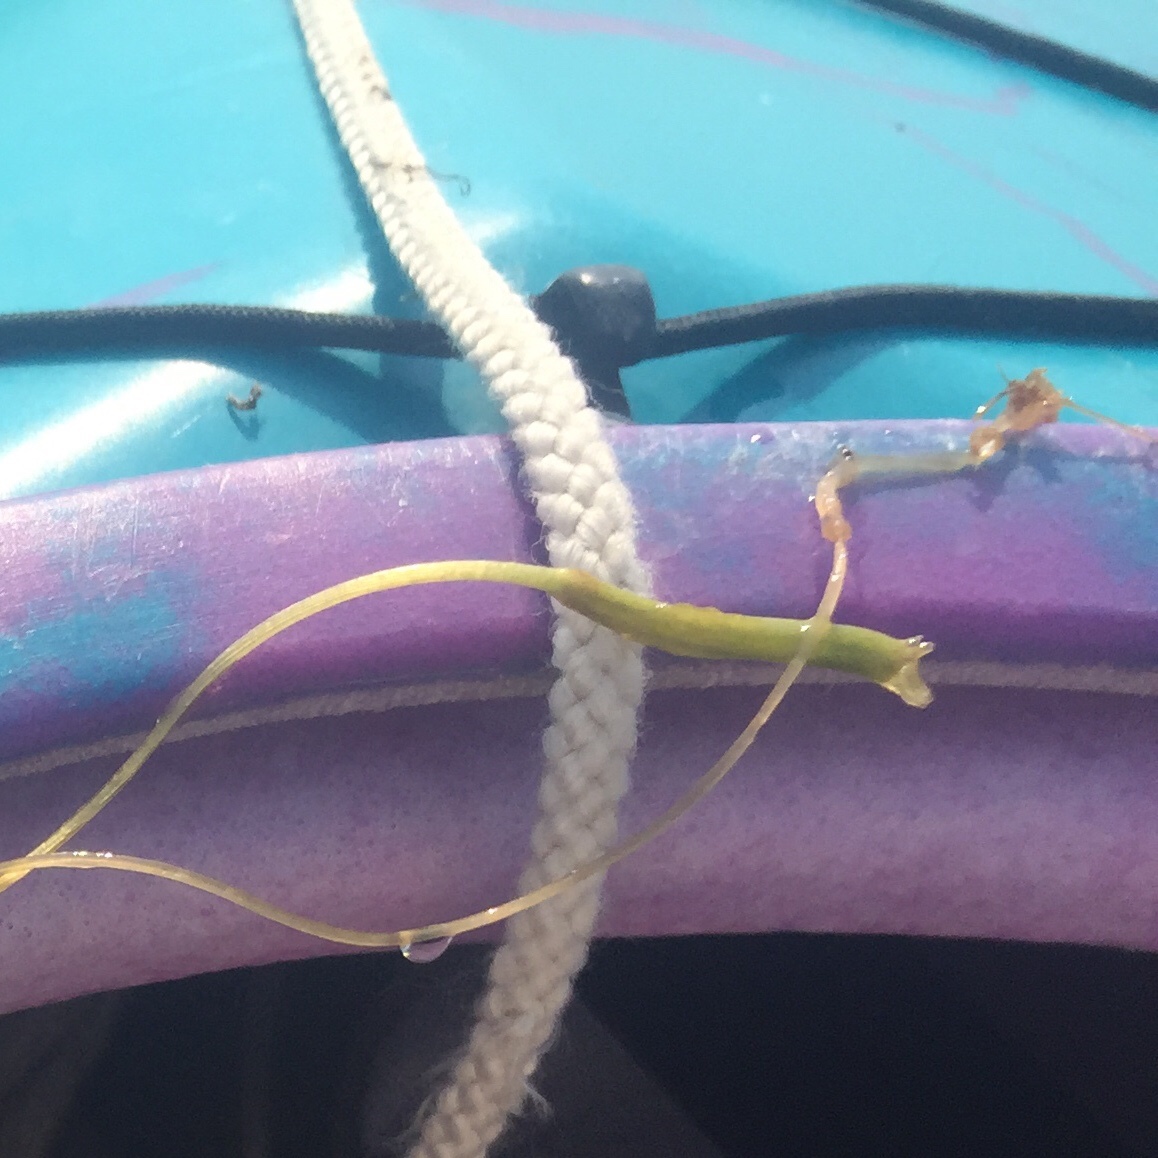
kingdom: Plantae
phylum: Tracheophyta
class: Liliopsida
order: Alismatales
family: Hydrocharitaceae
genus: Vallisneria
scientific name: Vallisneria americana
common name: American eelgrass
